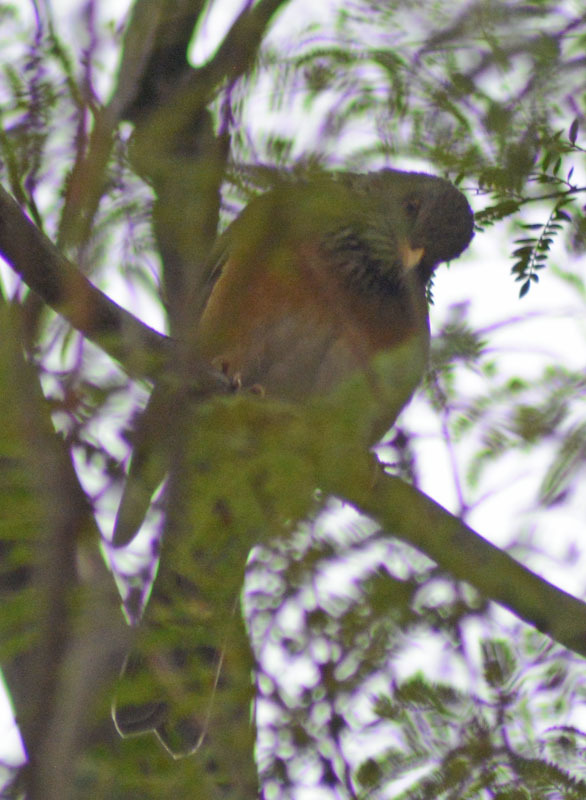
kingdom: Animalia
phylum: Chordata
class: Aves
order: Passeriformes
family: Turdidae
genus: Turdus
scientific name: Turdus rufopalliatus
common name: Rufous-backed robin
